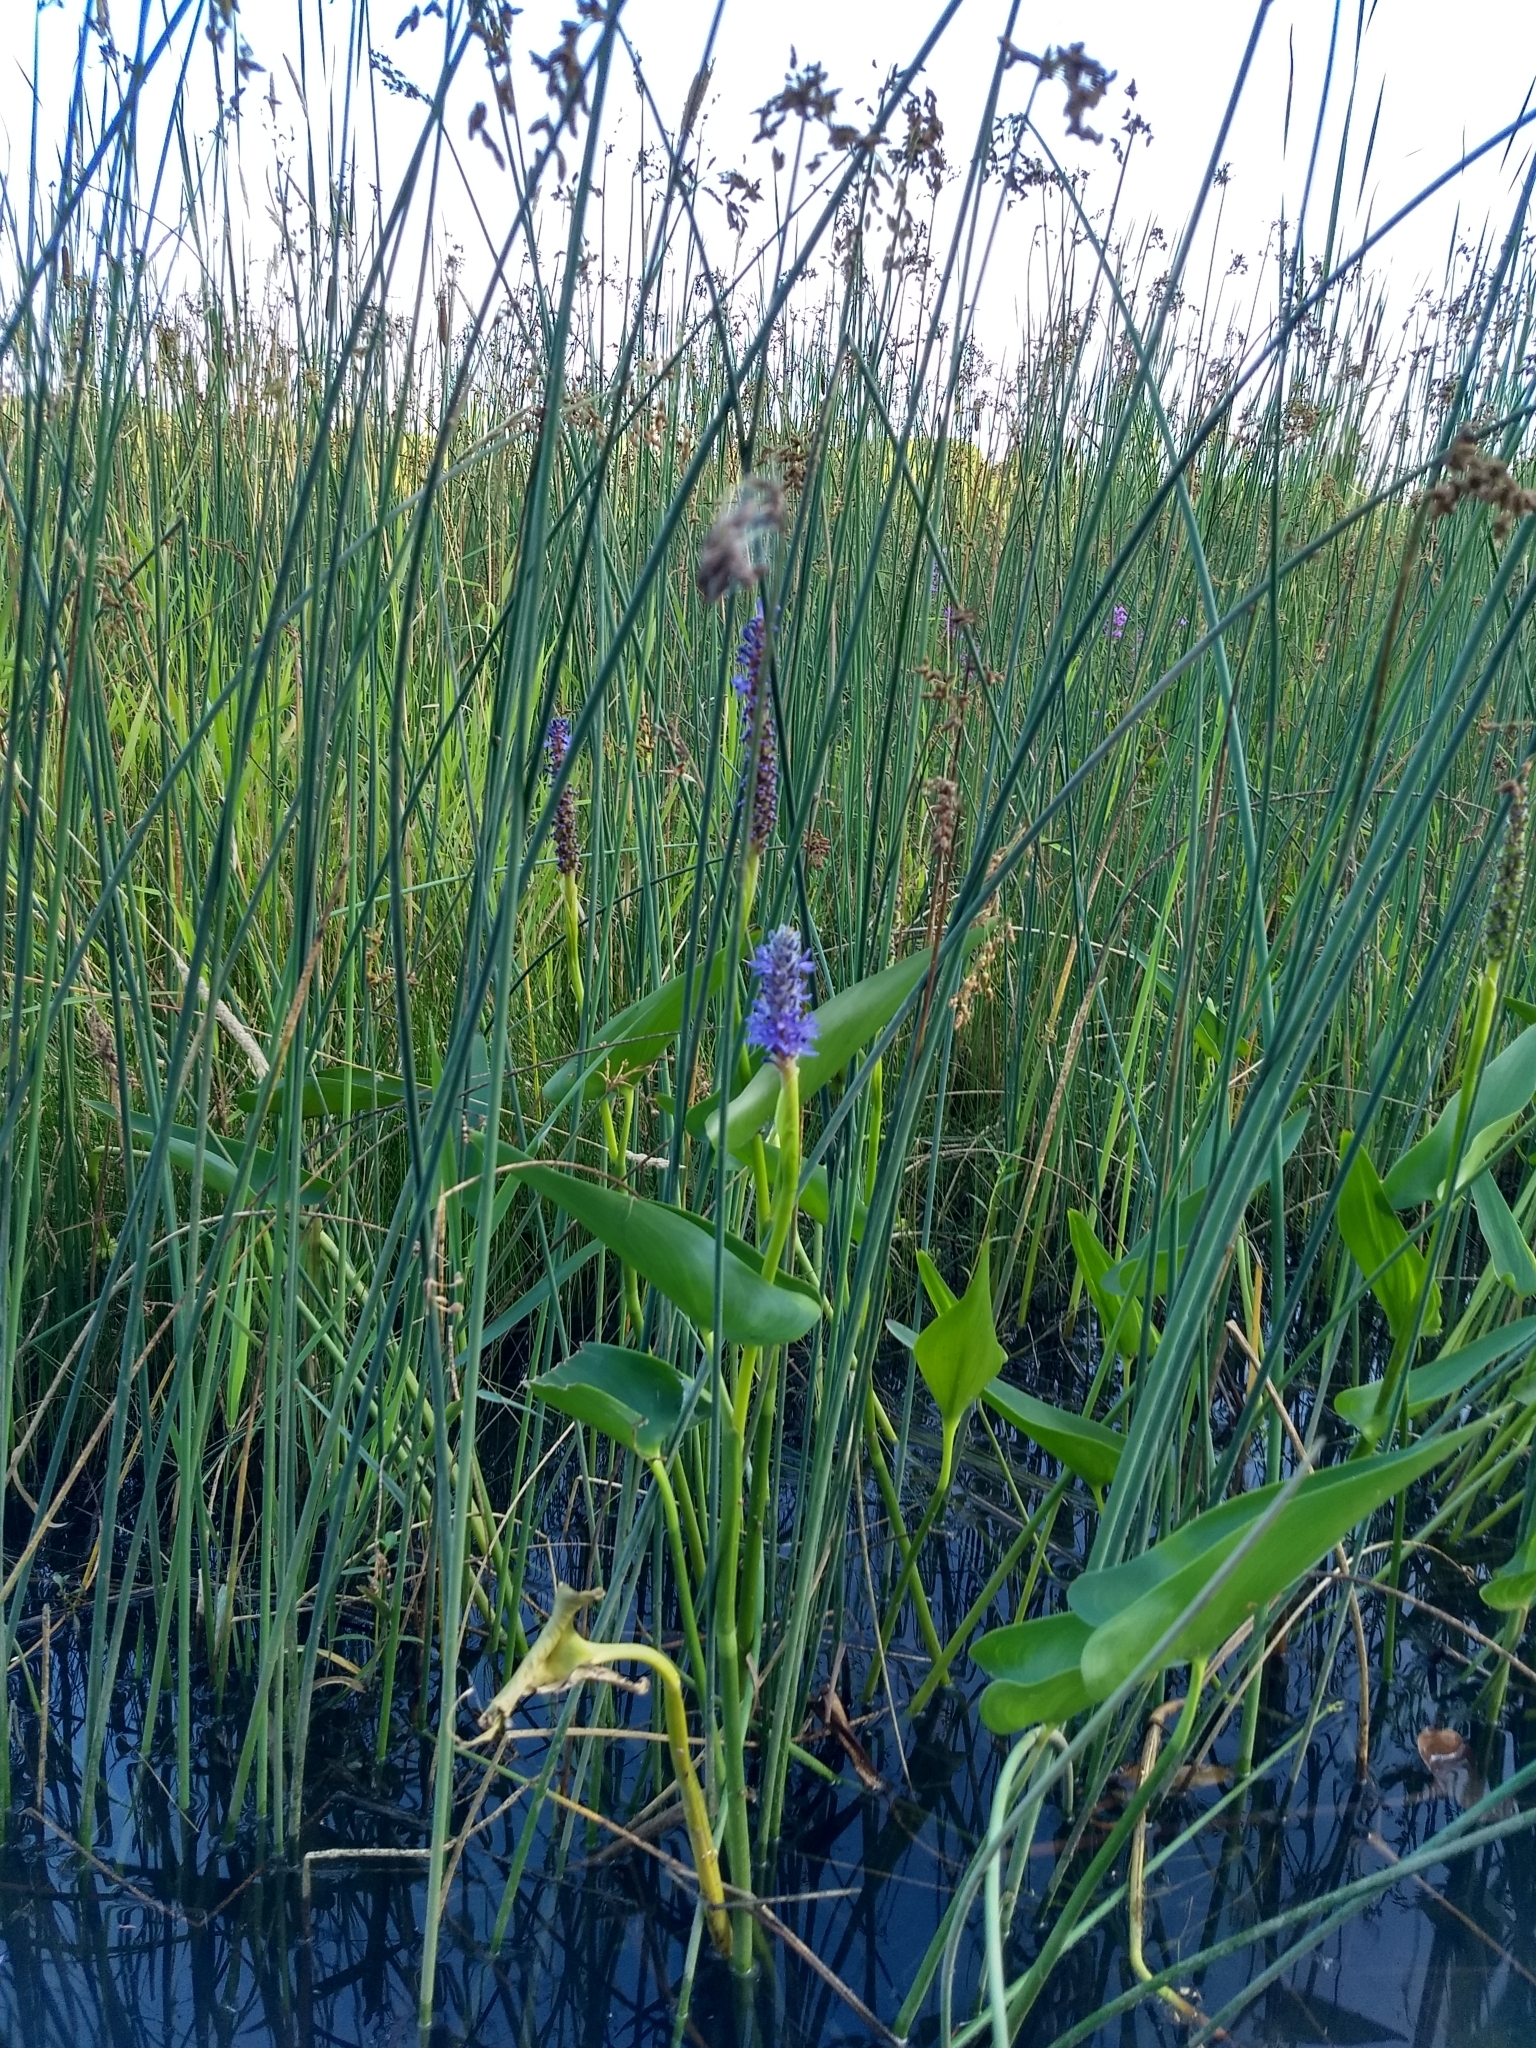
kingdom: Plantae
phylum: Tracheophyta
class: Liliopsida
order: Commelinales
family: Pontederiaceae
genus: Pontederia
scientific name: Pontederia cordata
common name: Pickerelweed
